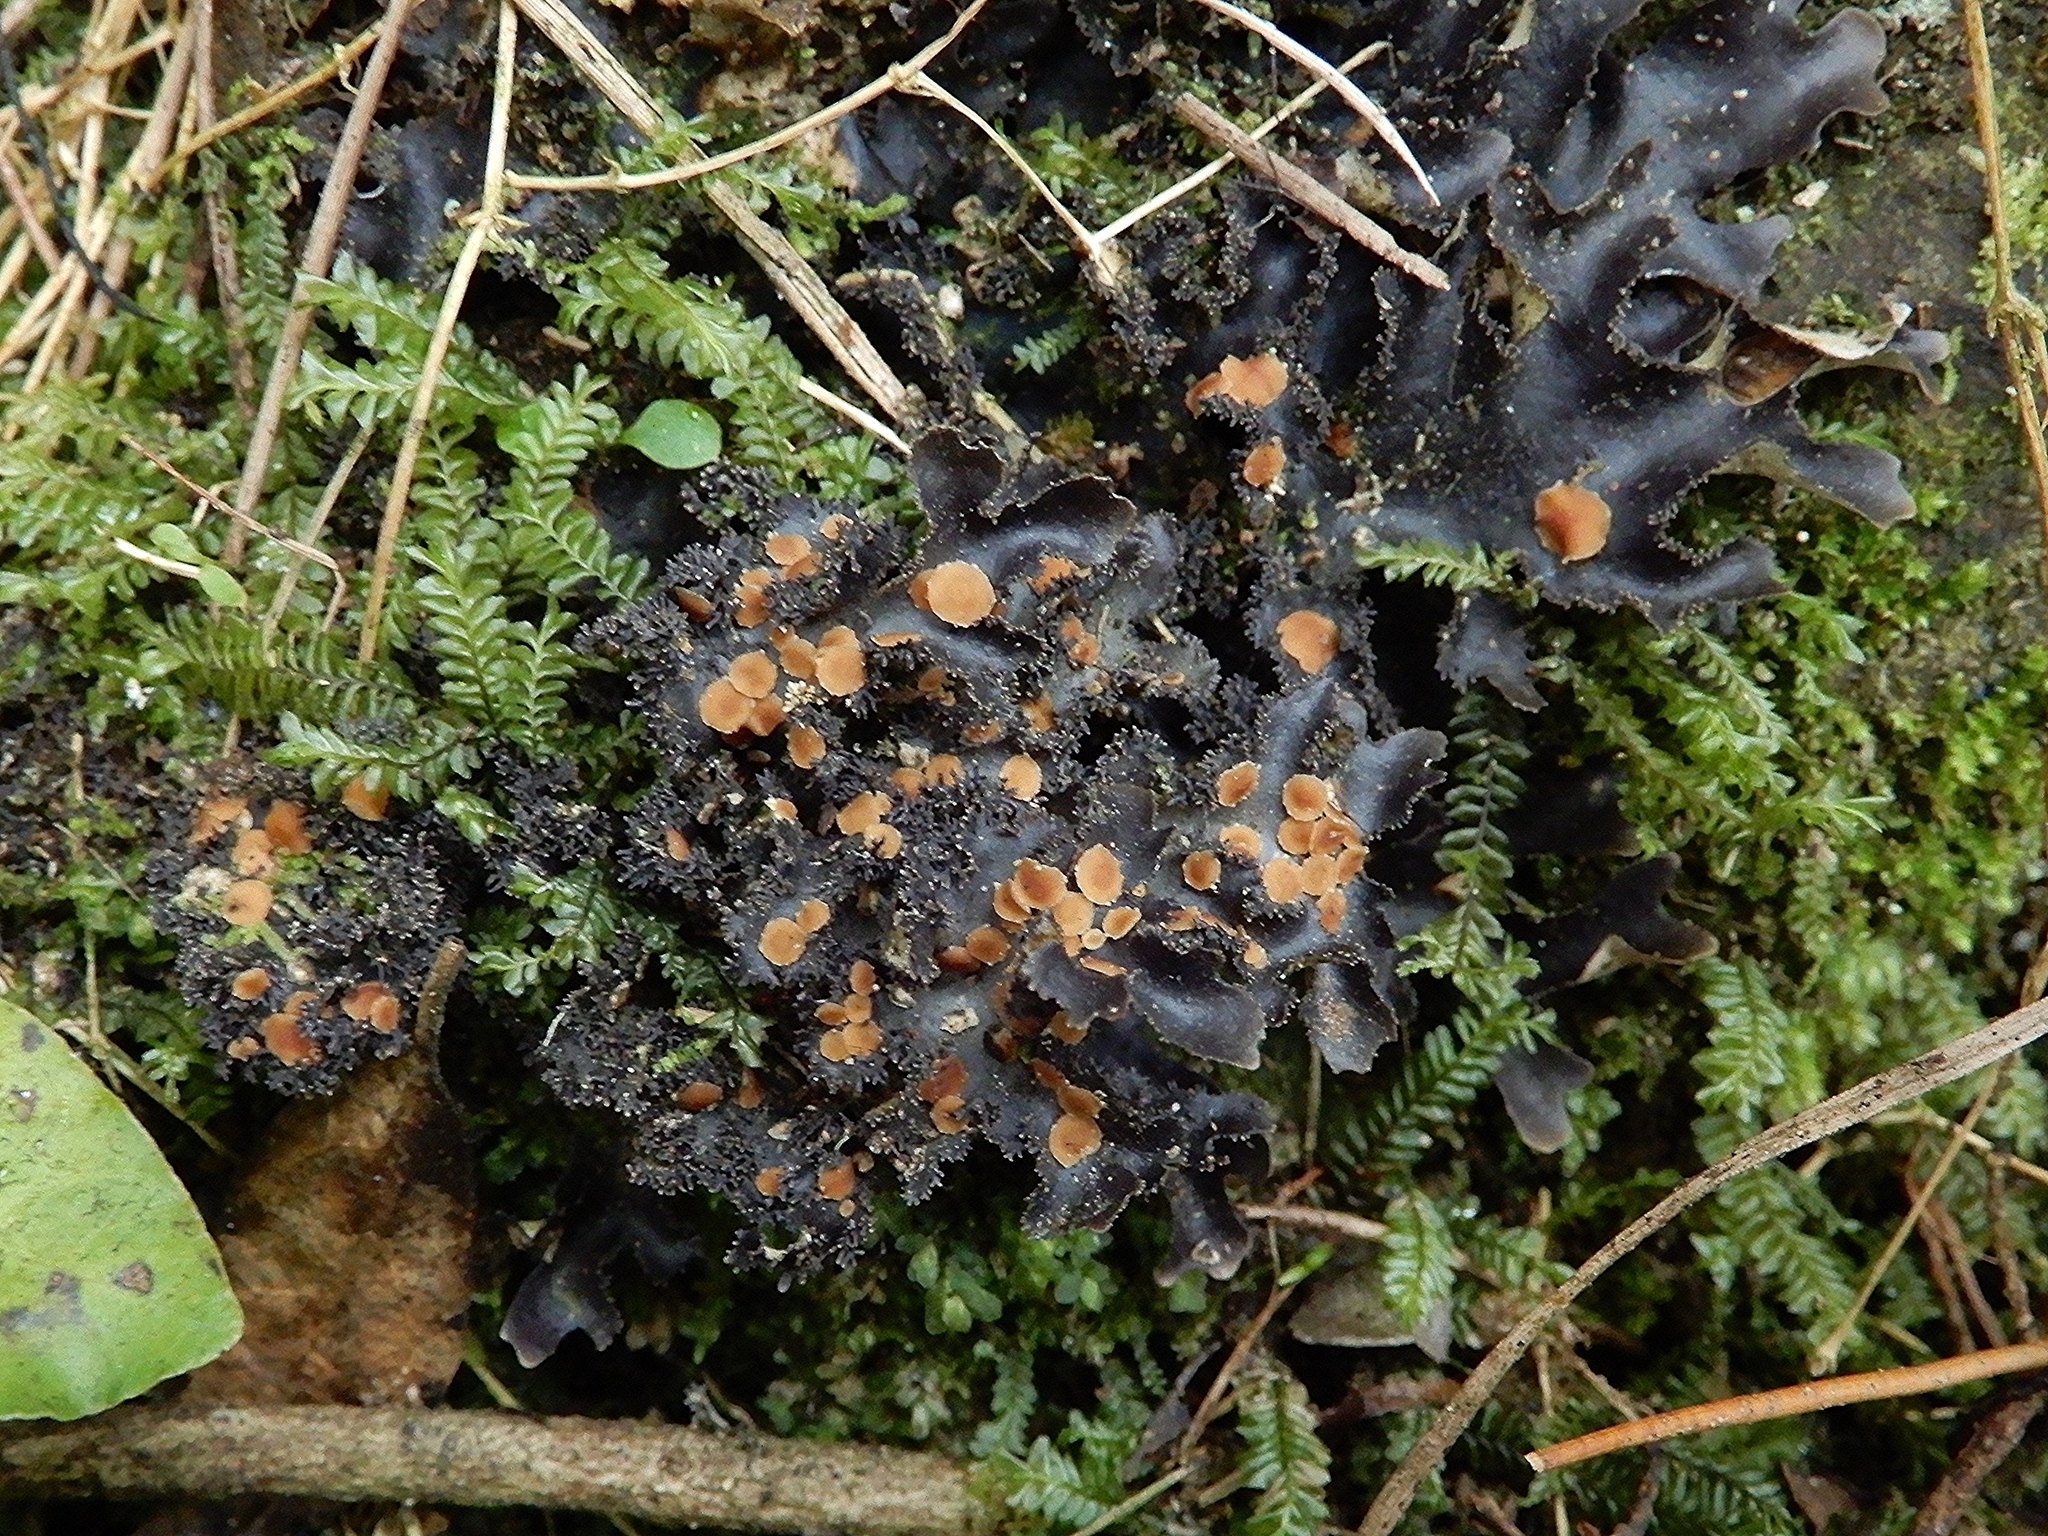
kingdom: Fungi
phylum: Ascomycota
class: Lecanoromycetes
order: Peltigerales
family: Lobariaceae
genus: Pseudocyphellaria
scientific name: Pseudocyphellaria dissimilis
